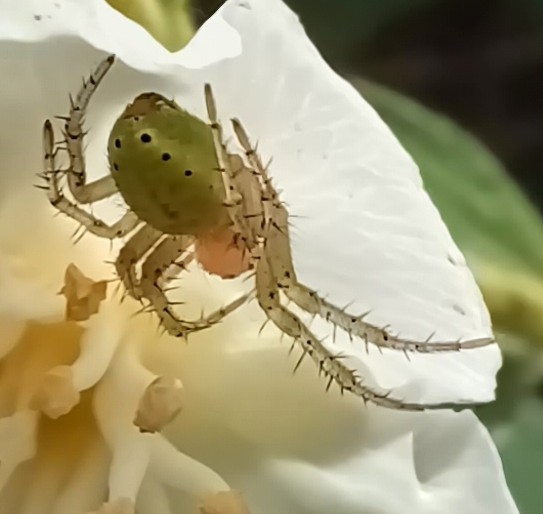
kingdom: Animalia
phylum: Arthropoda
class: Arachnida
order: Araneae
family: Araneidae
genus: Araniella
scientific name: Araniella
